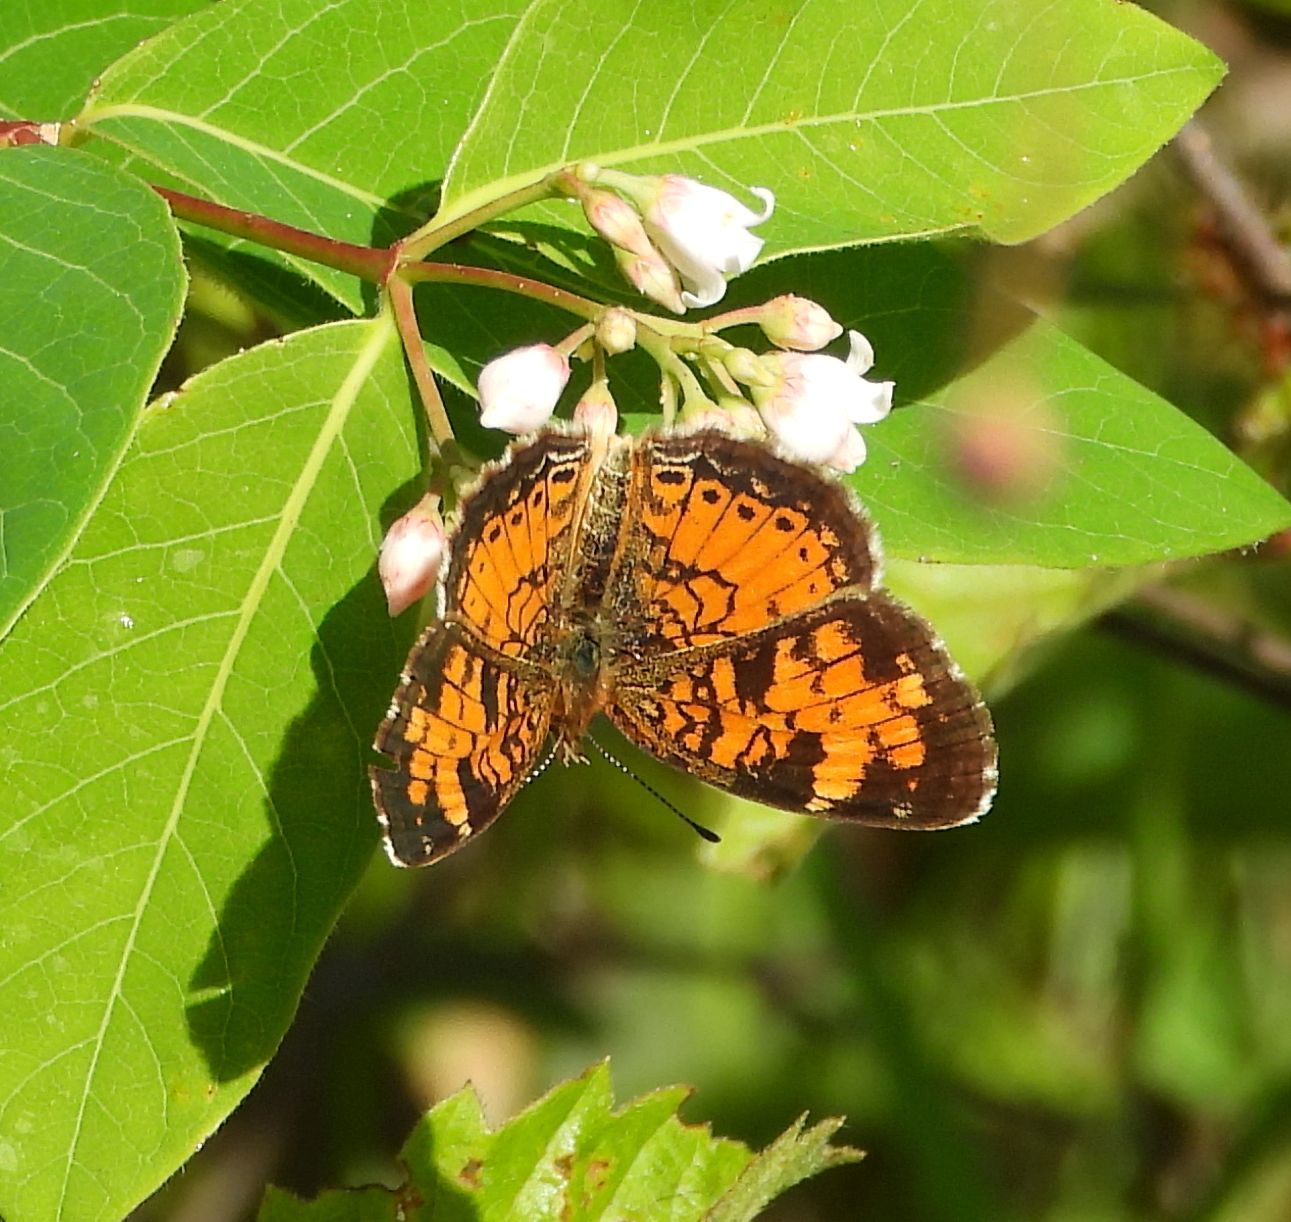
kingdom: Animalia
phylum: Arthropoda
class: Insecta
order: Lepidoptera
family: Nymphalidae
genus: Phyciodes
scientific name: Phyciodes tharos
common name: Pearl crescent
